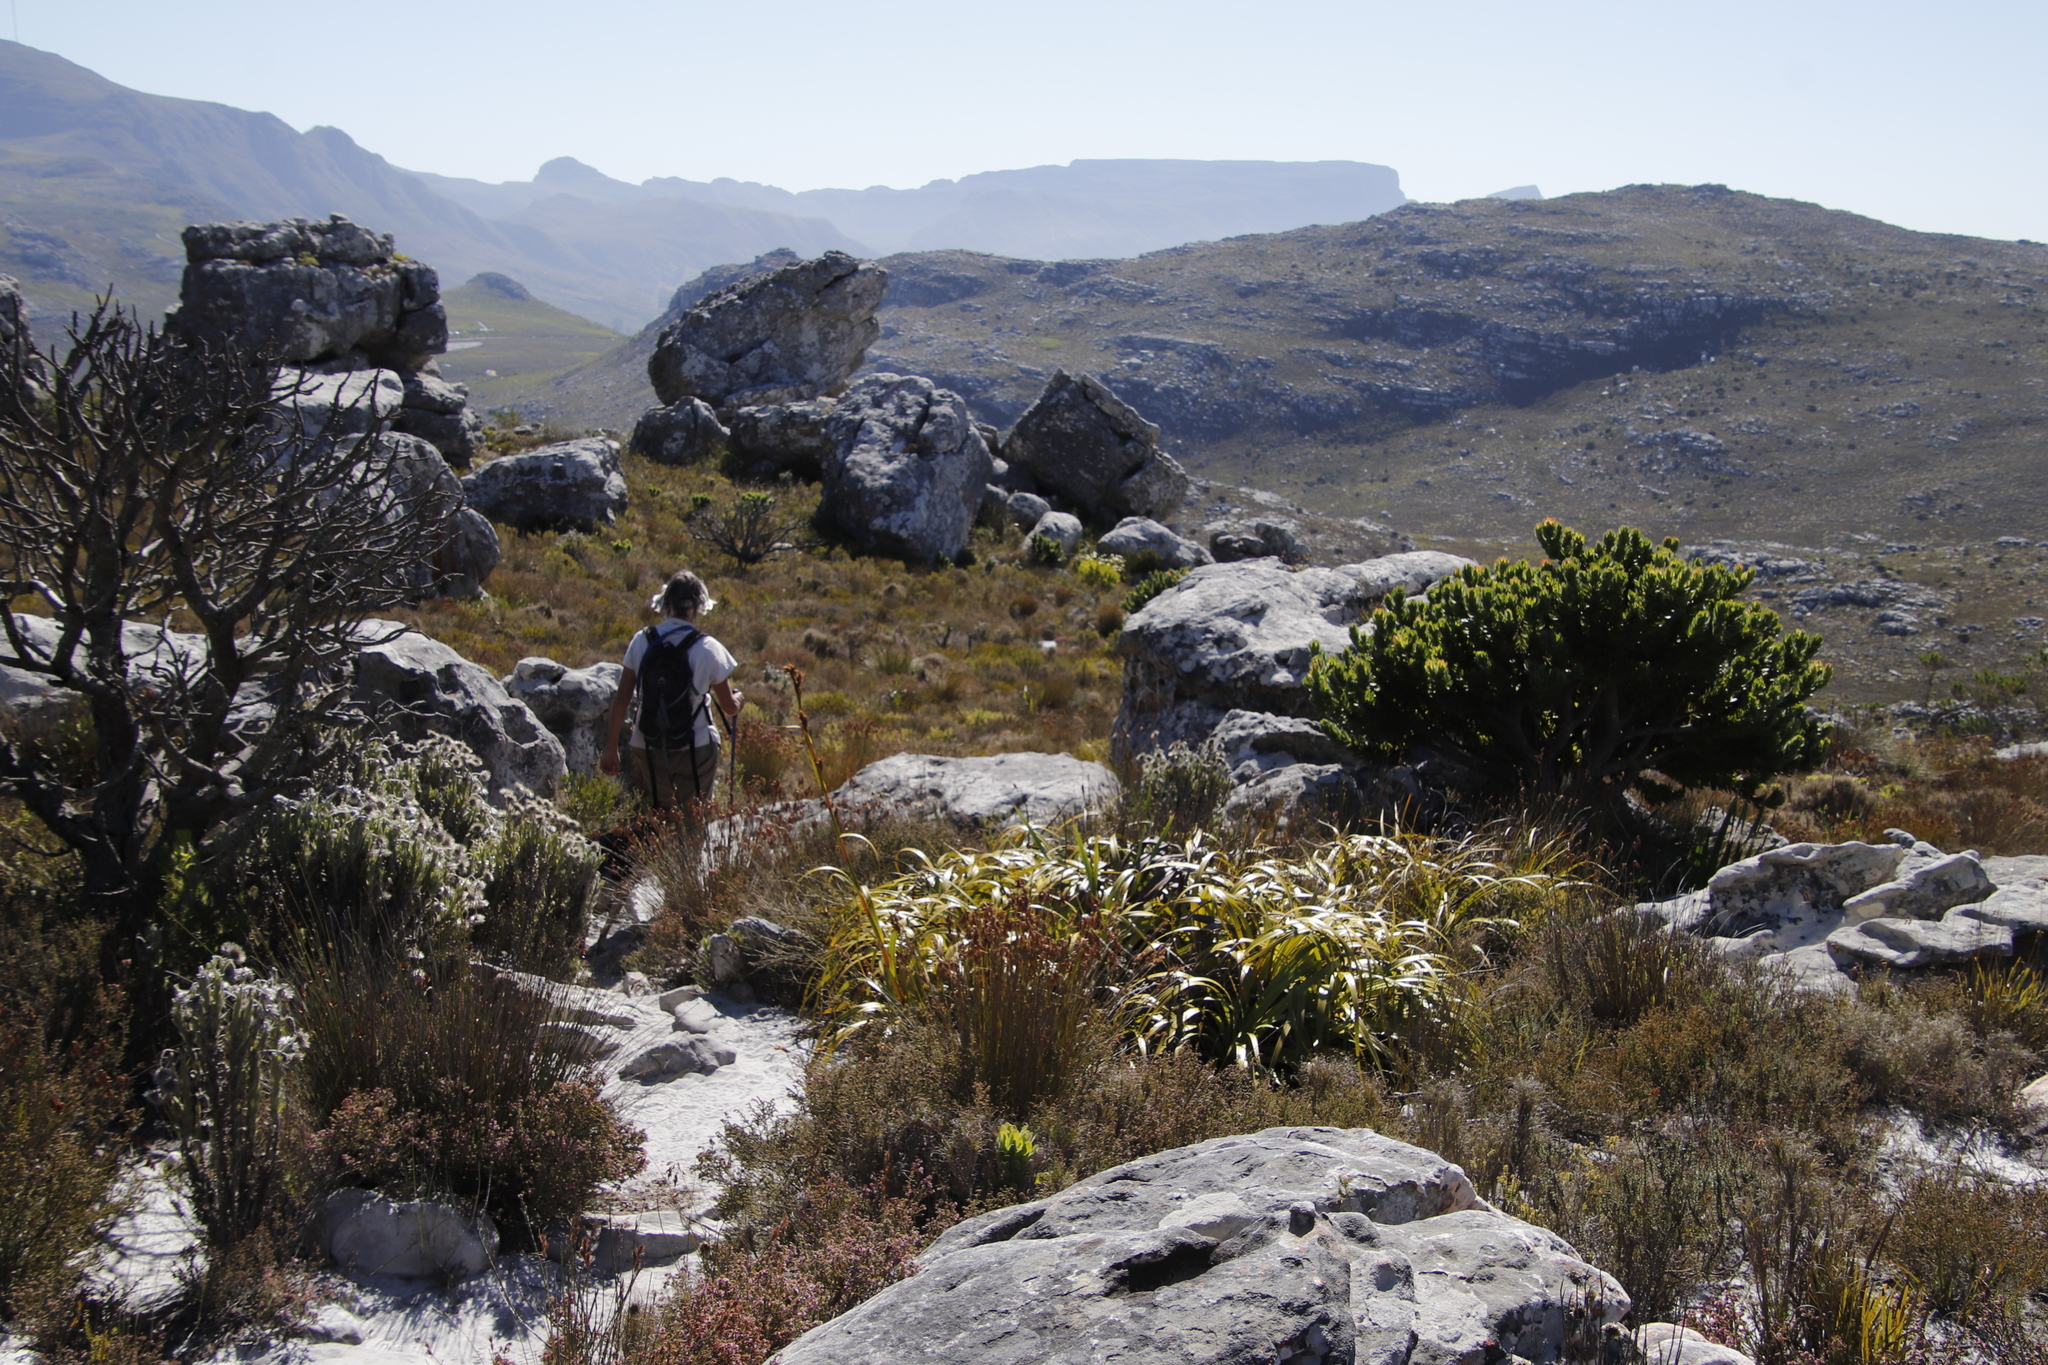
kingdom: Plantae
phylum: Tracheophyta
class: Liliopsida
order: Poales
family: Cyperaceae
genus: Tetraria
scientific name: Tetraria thermalis
